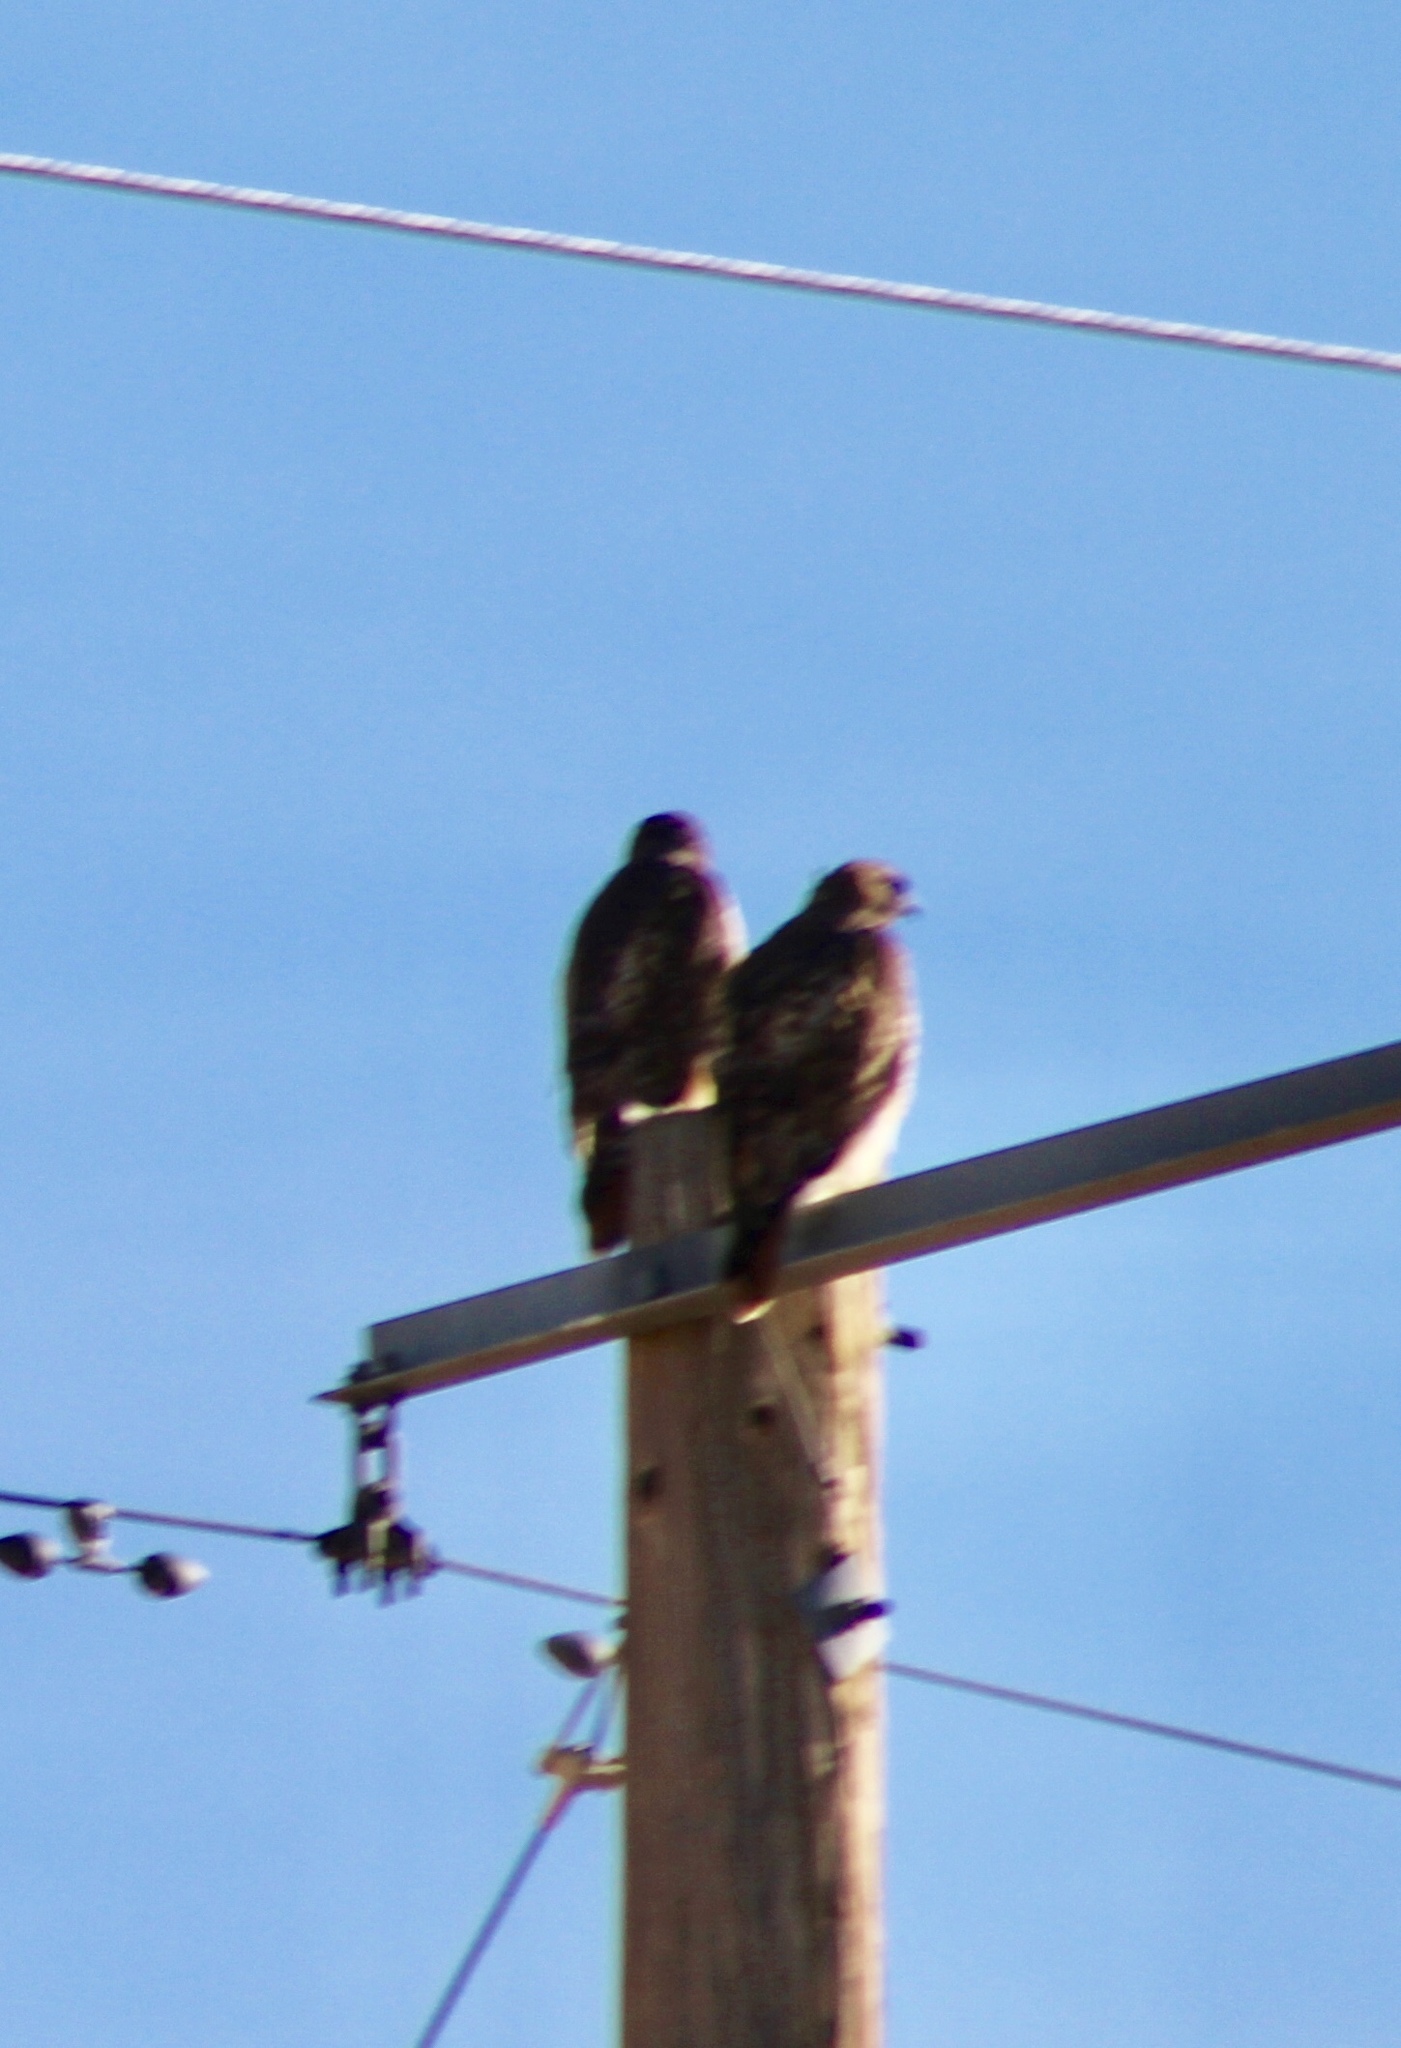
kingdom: Animalia
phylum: Chordata
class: Aves
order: Accipitriformes
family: Accipitridae
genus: Buteo
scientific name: Buteo jamaicensis
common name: Red-tailed hawk
